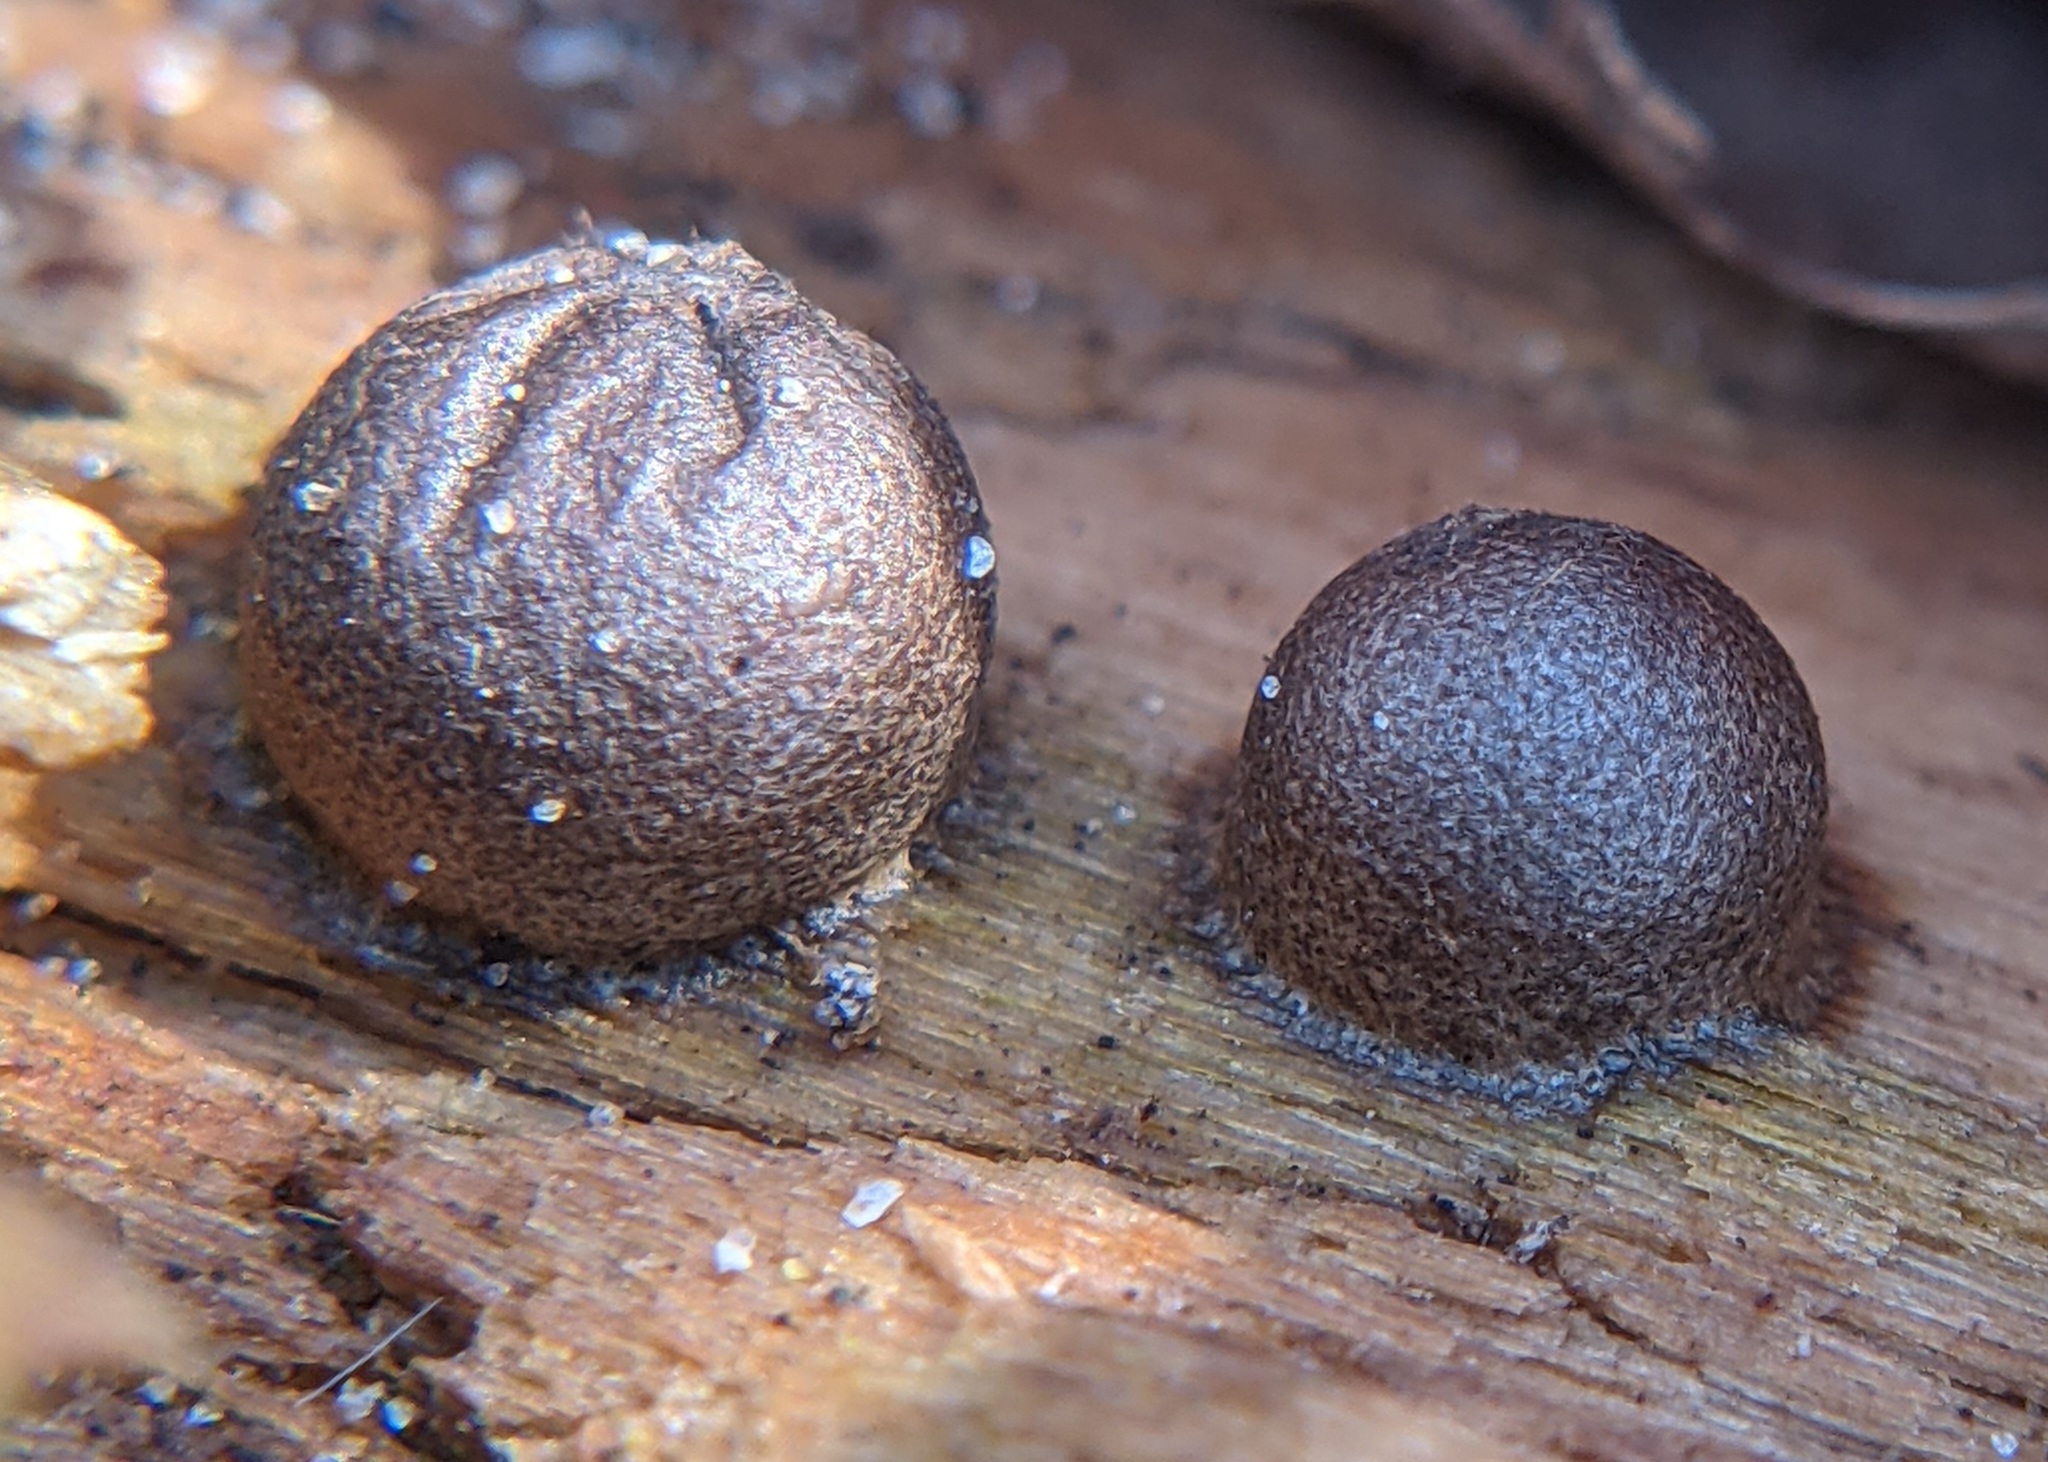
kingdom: Protozoa
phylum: Mycetozoa
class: Myxomycetes
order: Cribrariales
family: Tubiferaceae
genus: Lycogala
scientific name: Lycogala epidendrum
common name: Wolf's milk
